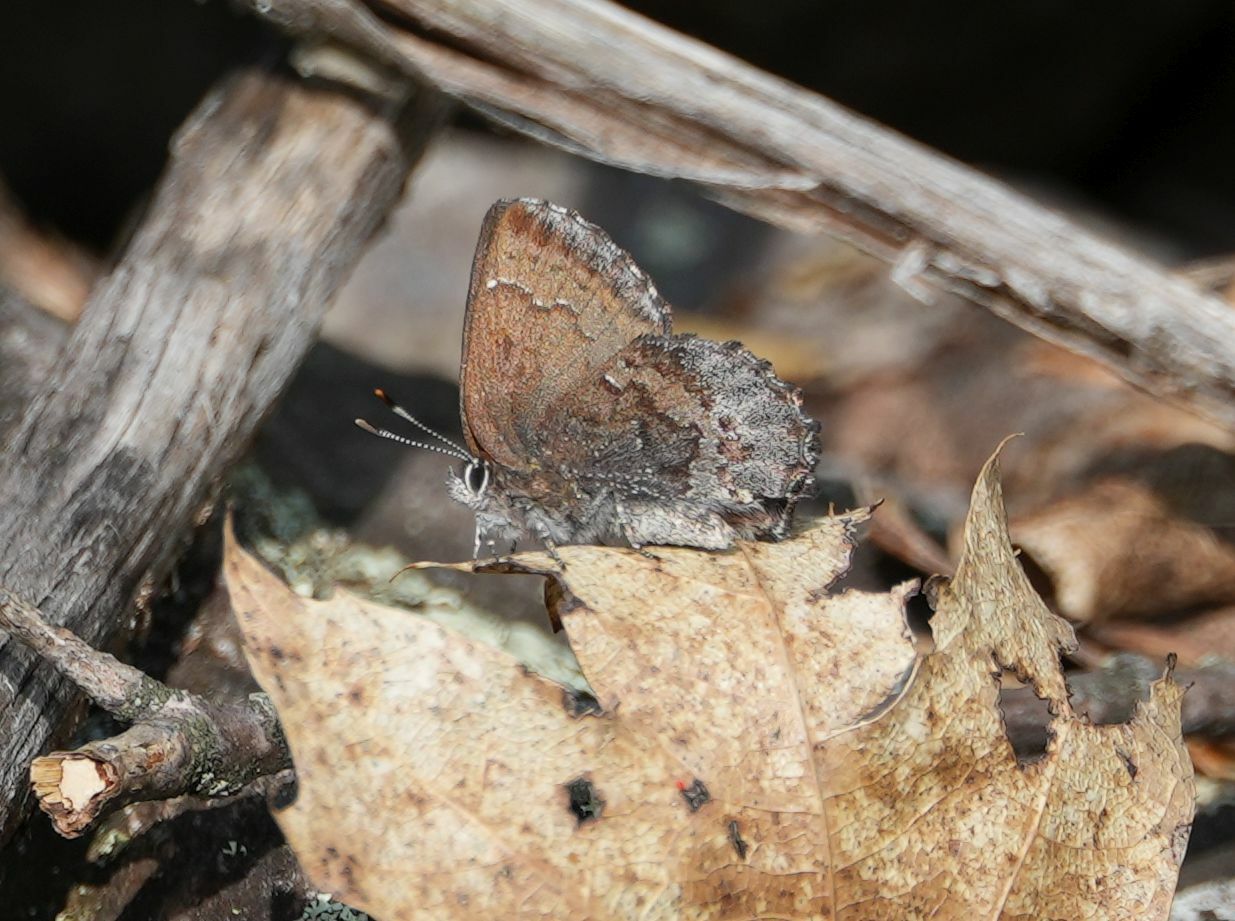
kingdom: Animalia
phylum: Arthropoda
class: Insecta
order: Lepidoptera
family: Lycaenidae
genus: Callophrys
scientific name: Callophrys polios
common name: Hoary elfin
